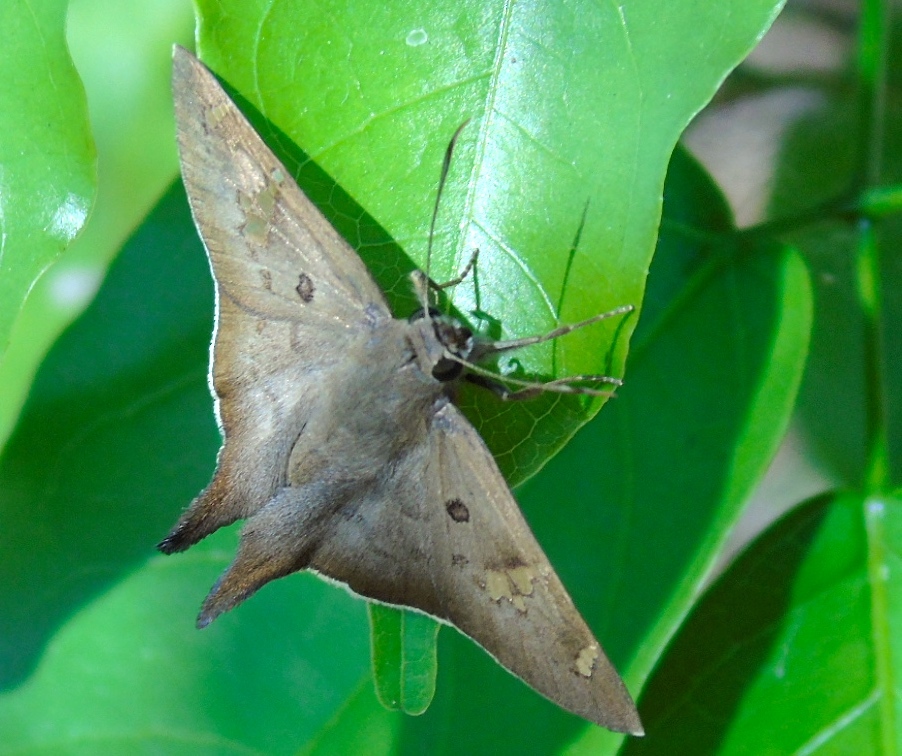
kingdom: Animalia
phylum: Arthropoda
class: Insecta
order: Lepidoptera
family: Hesperiidae
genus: Ectomis
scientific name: Ectomis
